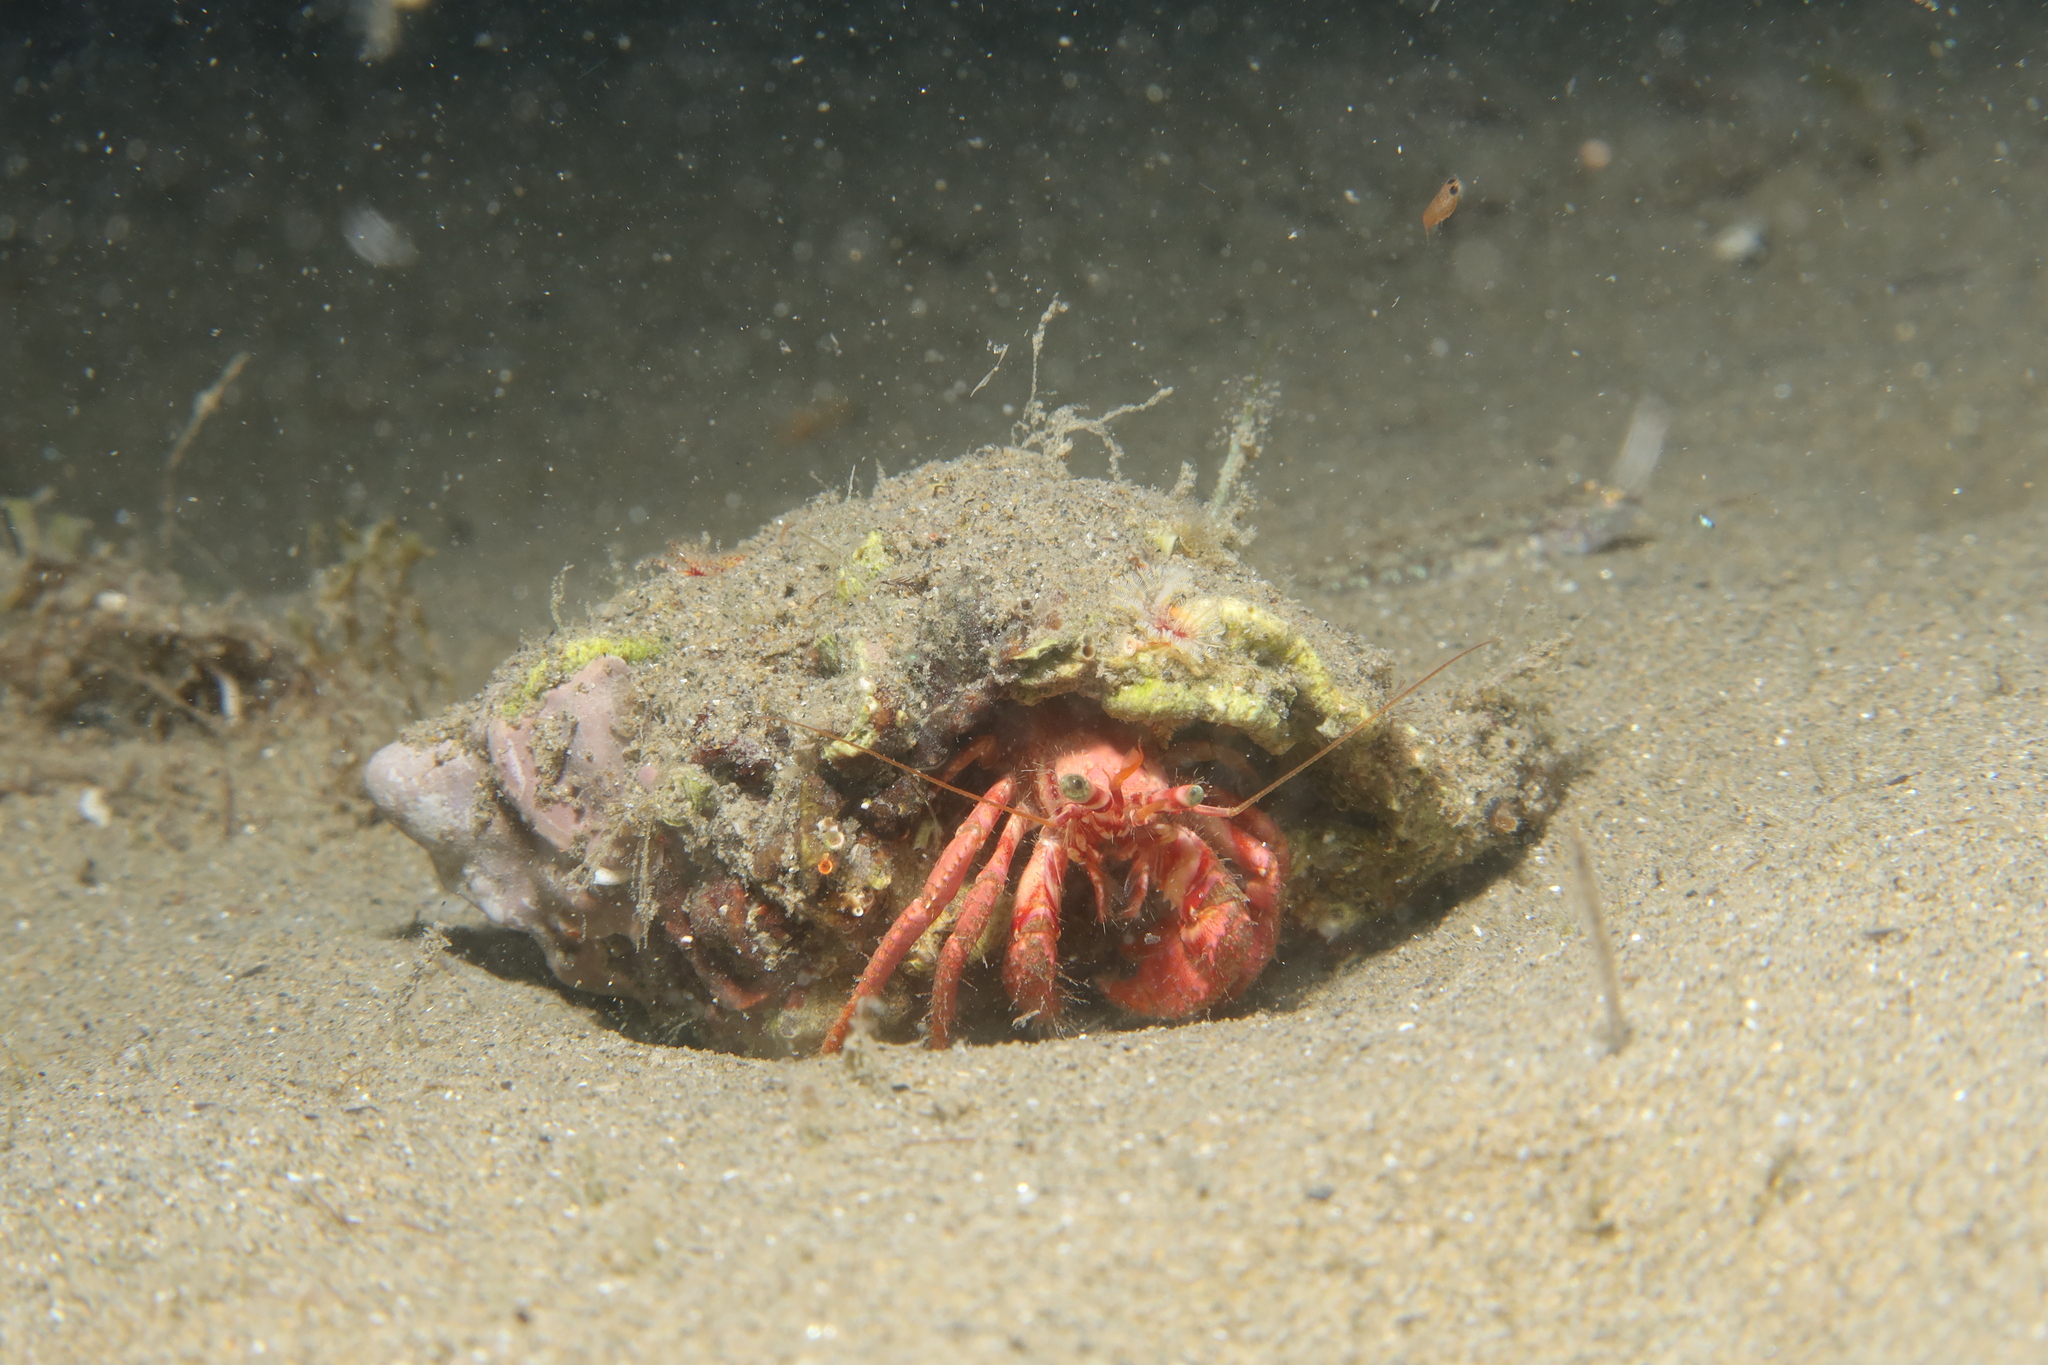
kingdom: Animalia
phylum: Arthropoda
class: Malacostraca
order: Decapoda
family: Diogenidae
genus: Dardanus
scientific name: Dardanus arrosor
